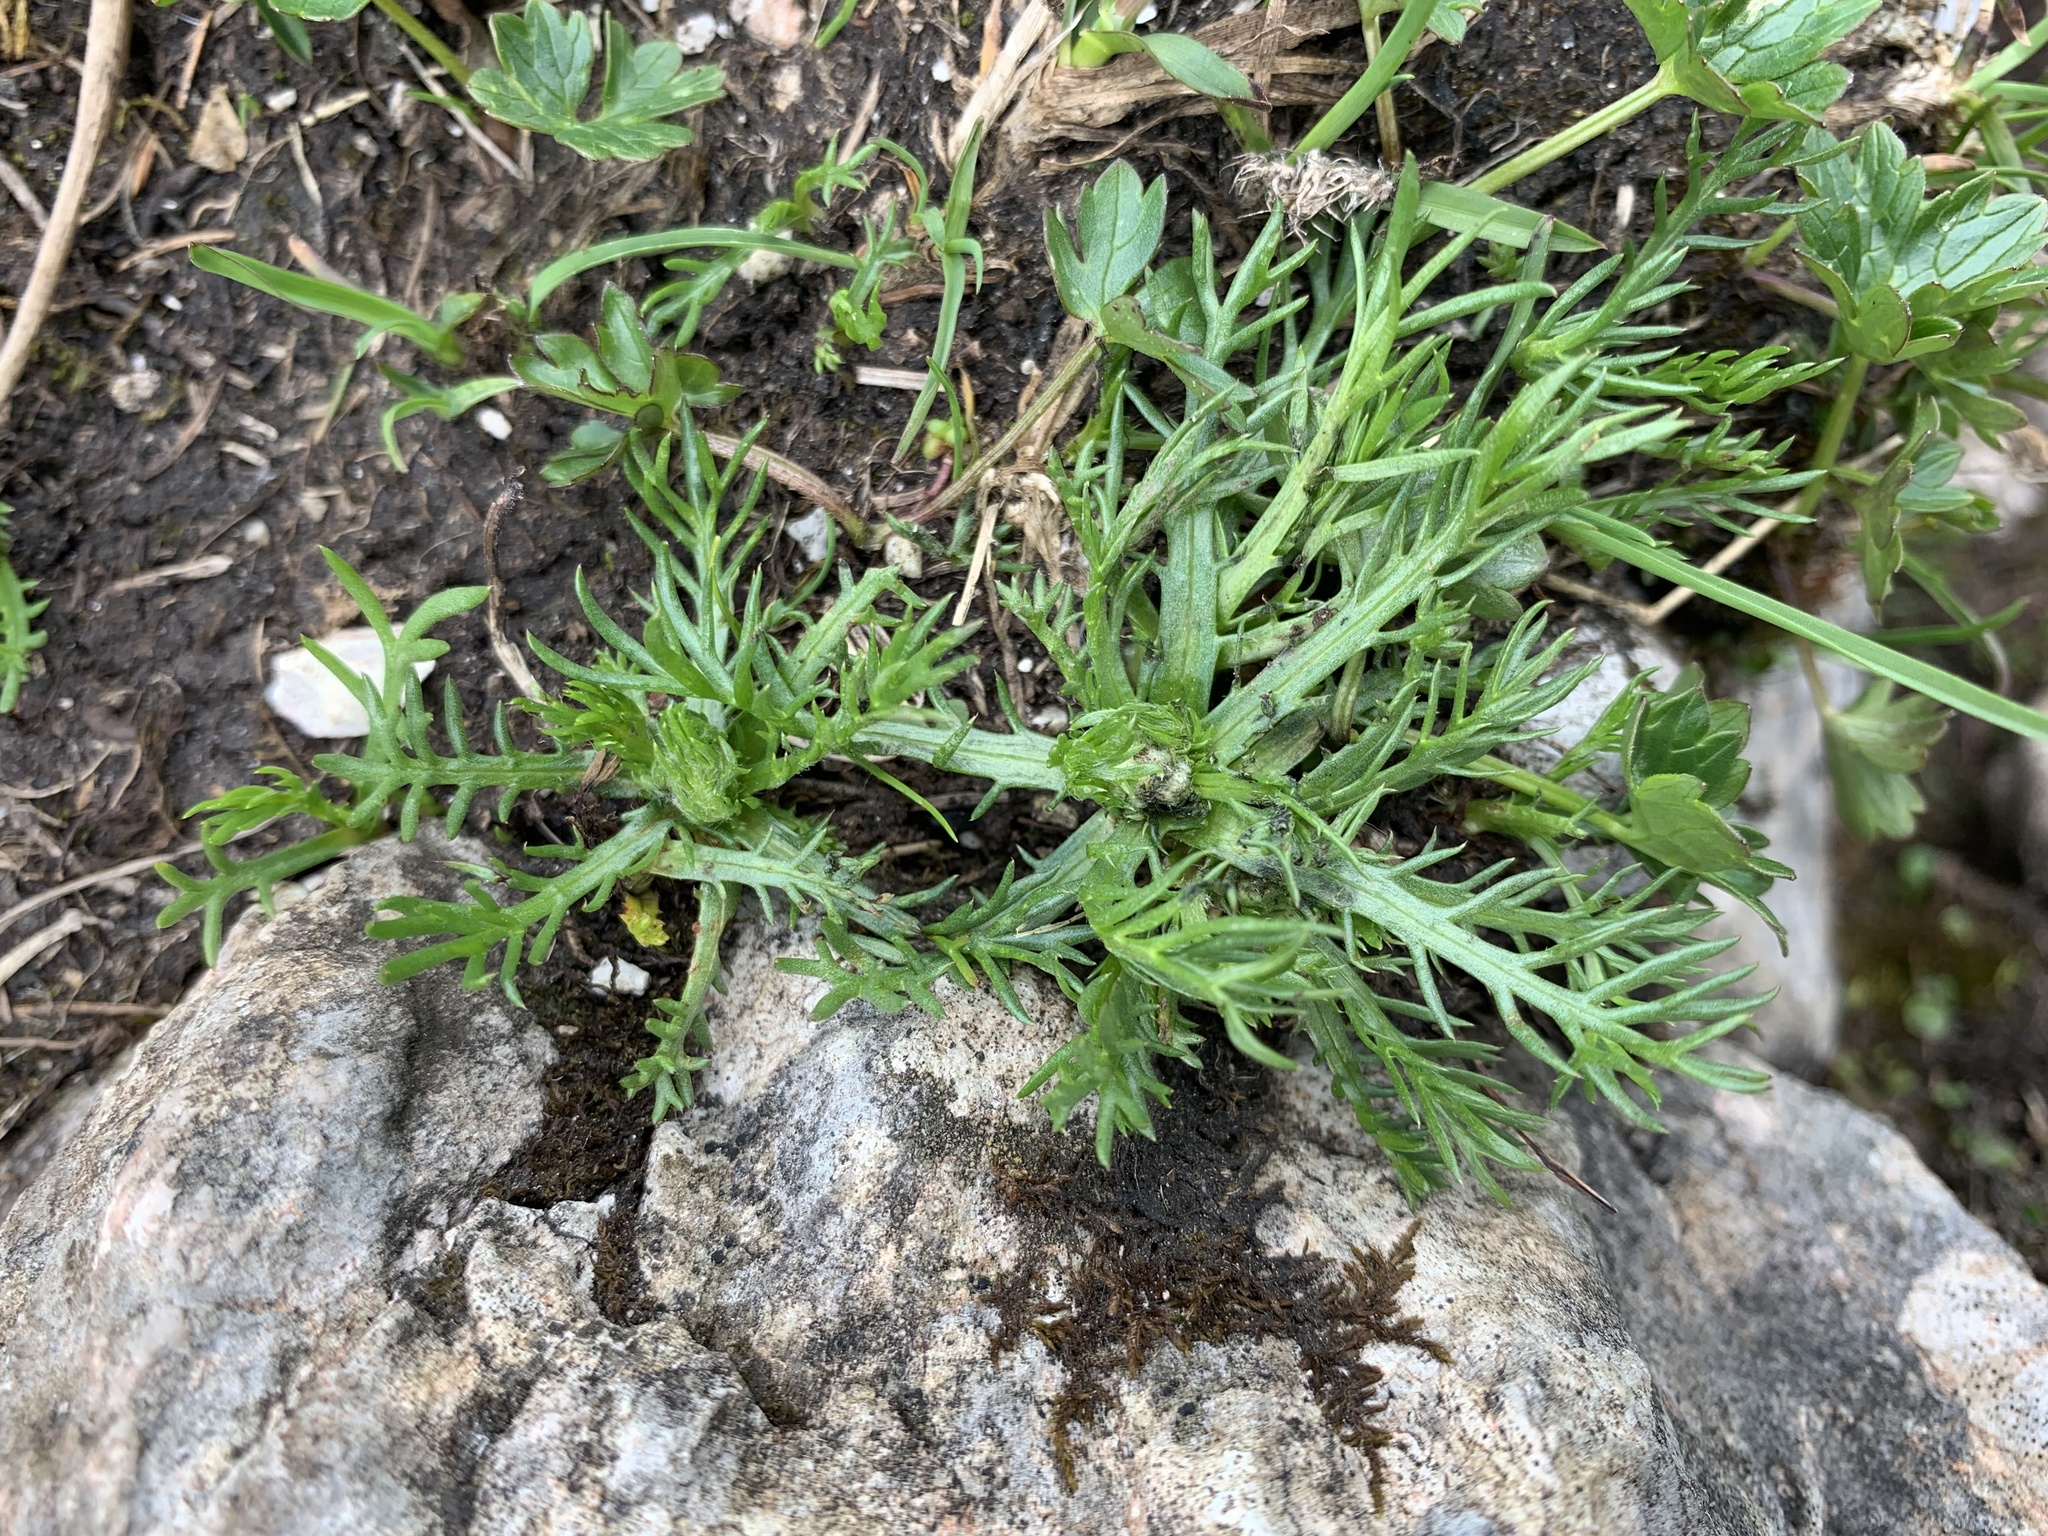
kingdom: Plantae
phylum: Tracheophyta
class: Magnoliopsida
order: Asterales
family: Asteraceae
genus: Achillea
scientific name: Achillea atrata
